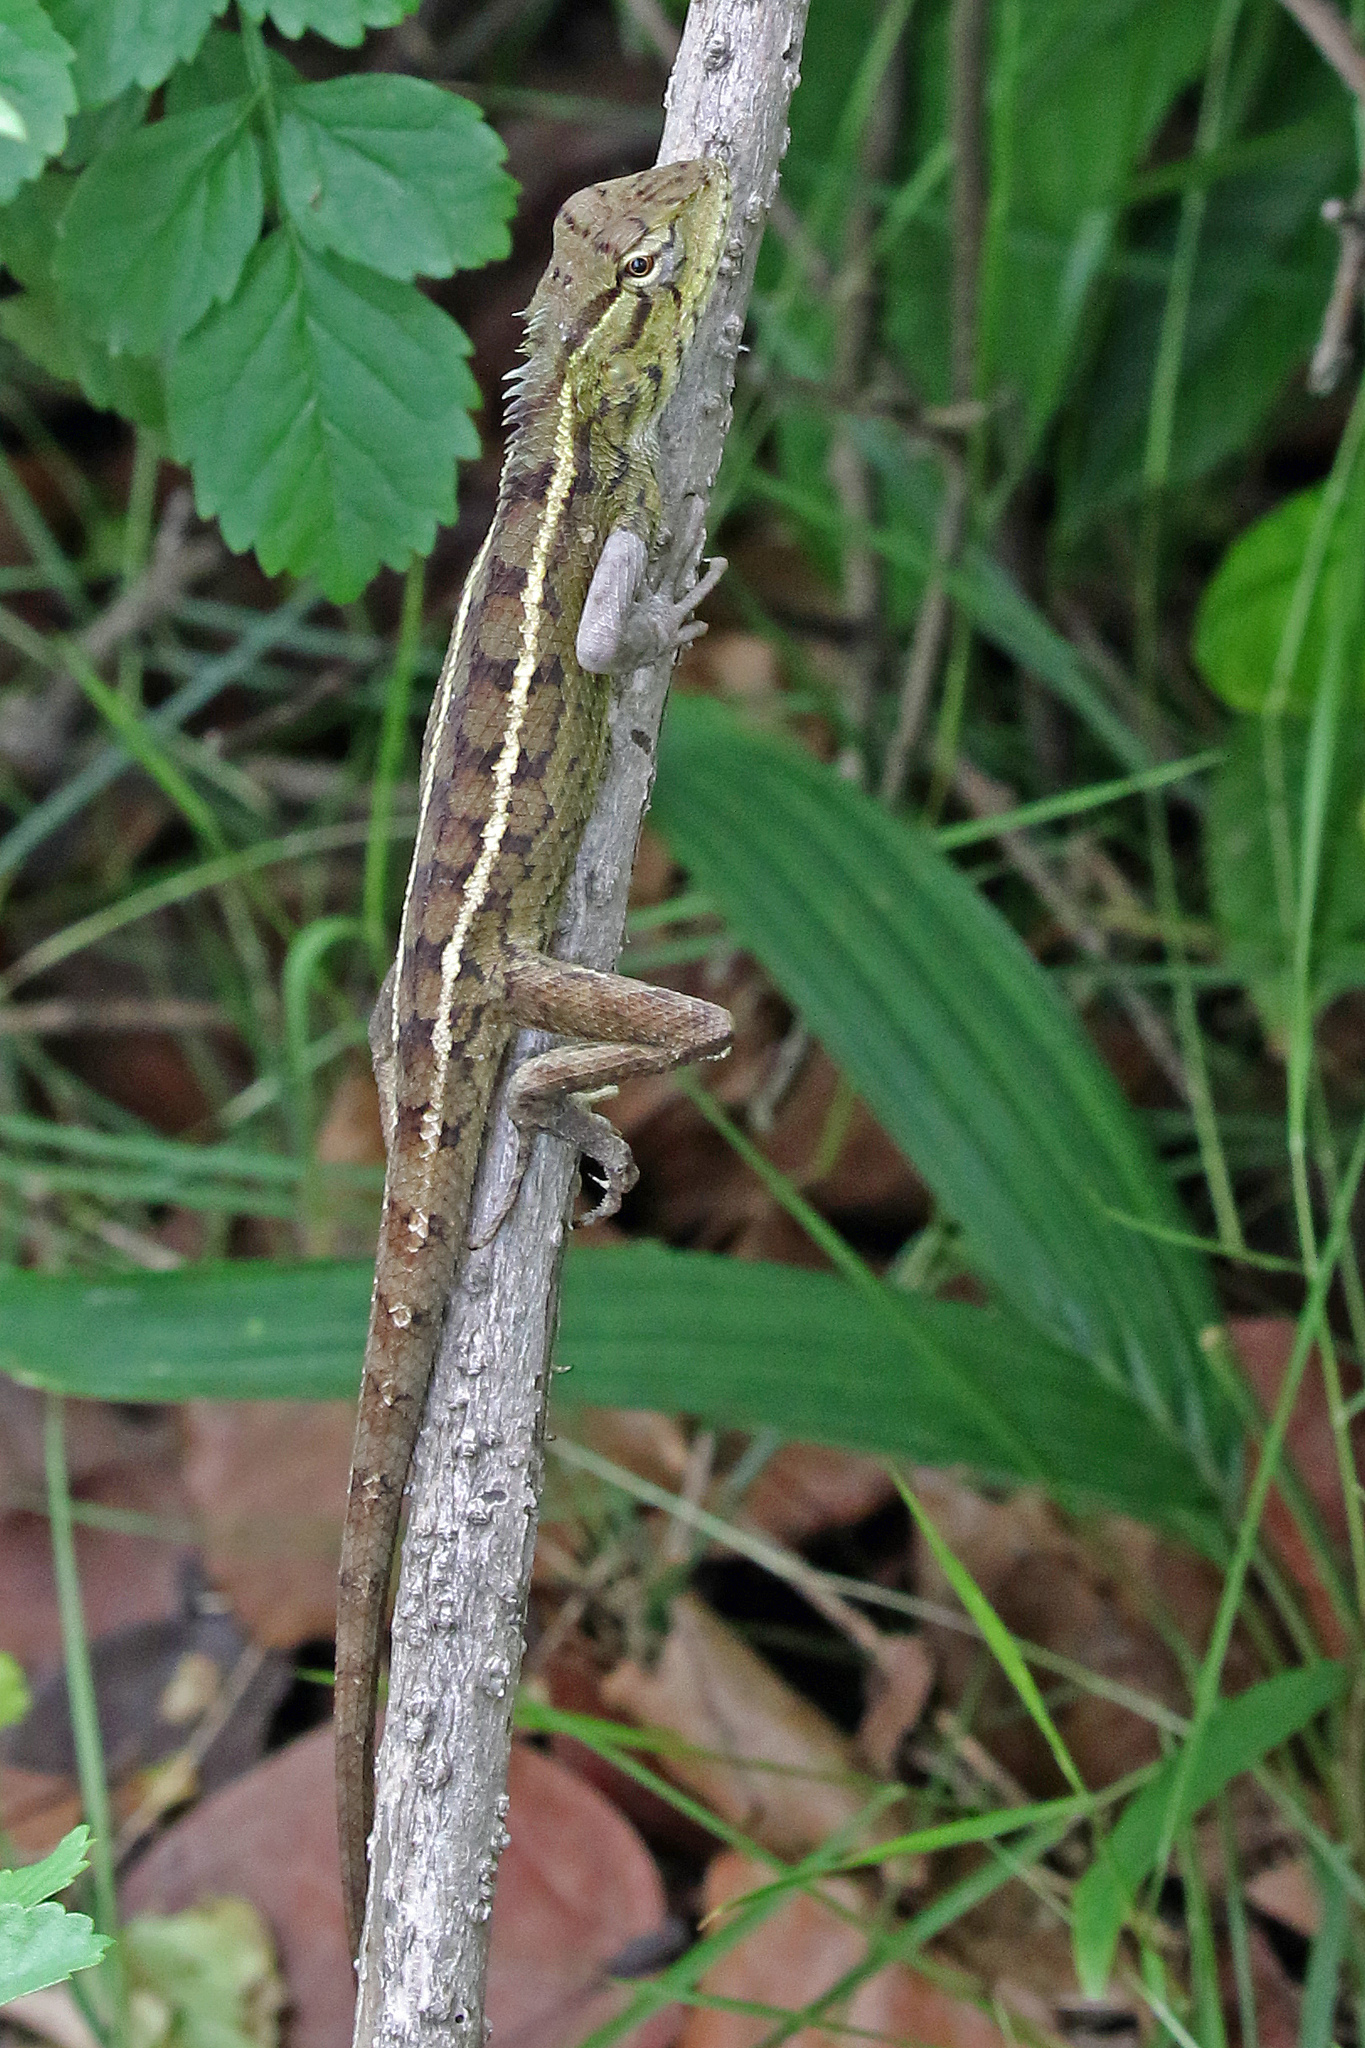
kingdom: Animalia
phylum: Chordata
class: Squamata
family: Agamidae
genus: Calotes
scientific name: Calotes versicolor
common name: Oriental garden lizard
